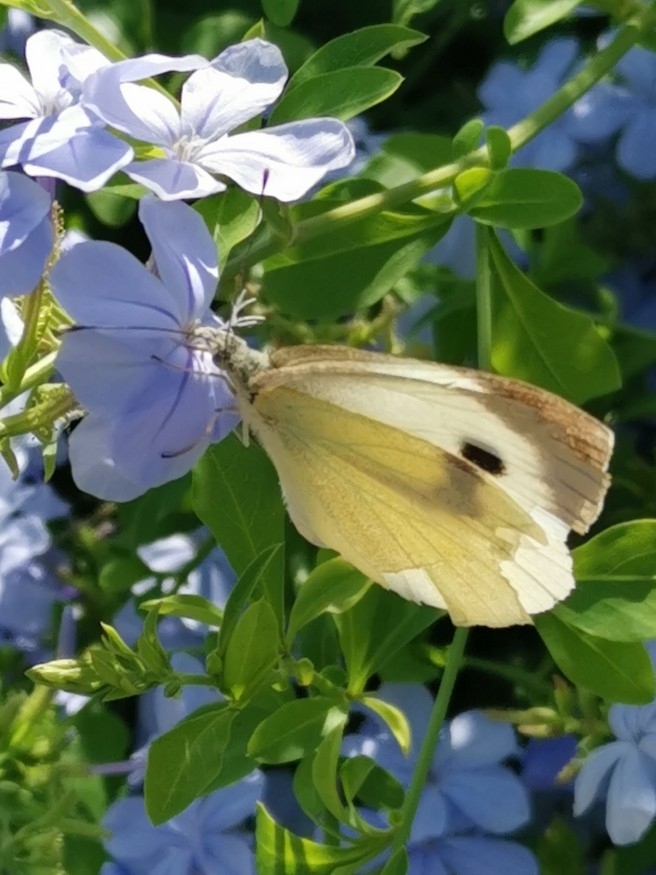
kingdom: Animalia
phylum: Arthropoda
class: Insecta
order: Lepidoptera
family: Pieridae
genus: Pieris
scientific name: Pieris brassicae
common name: Large white
